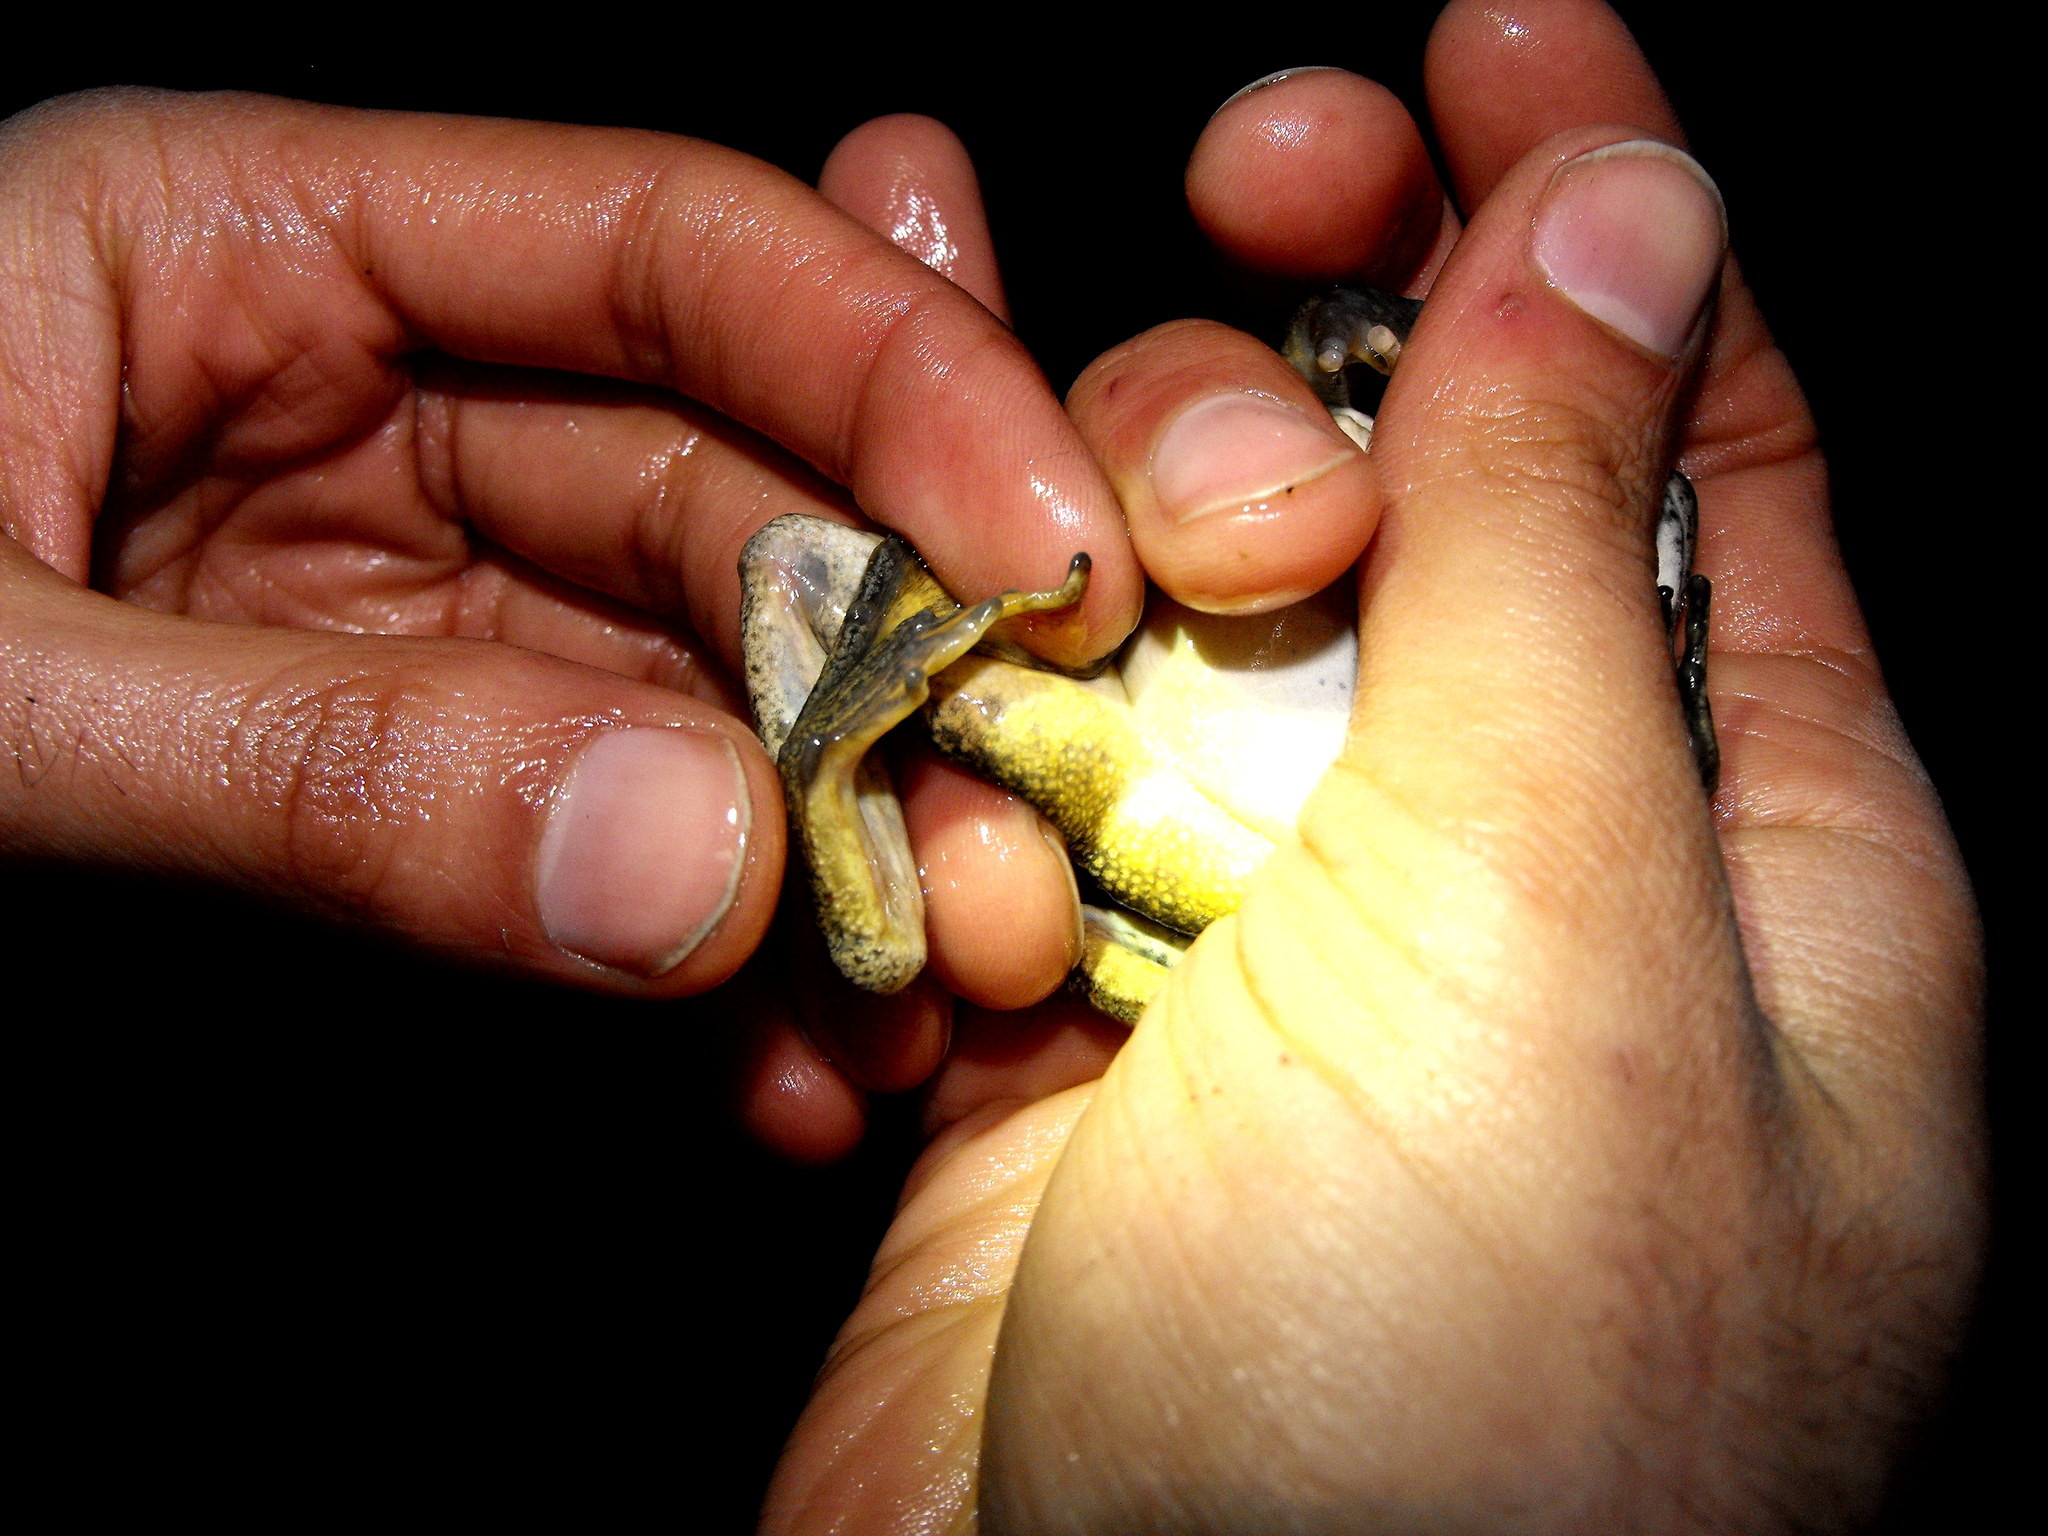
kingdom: Animalia
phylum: Chordata
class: Amphibia
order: Anura
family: Ranidae
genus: Rana
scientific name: Rana boylii
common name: Foothill yellow-legged frog
